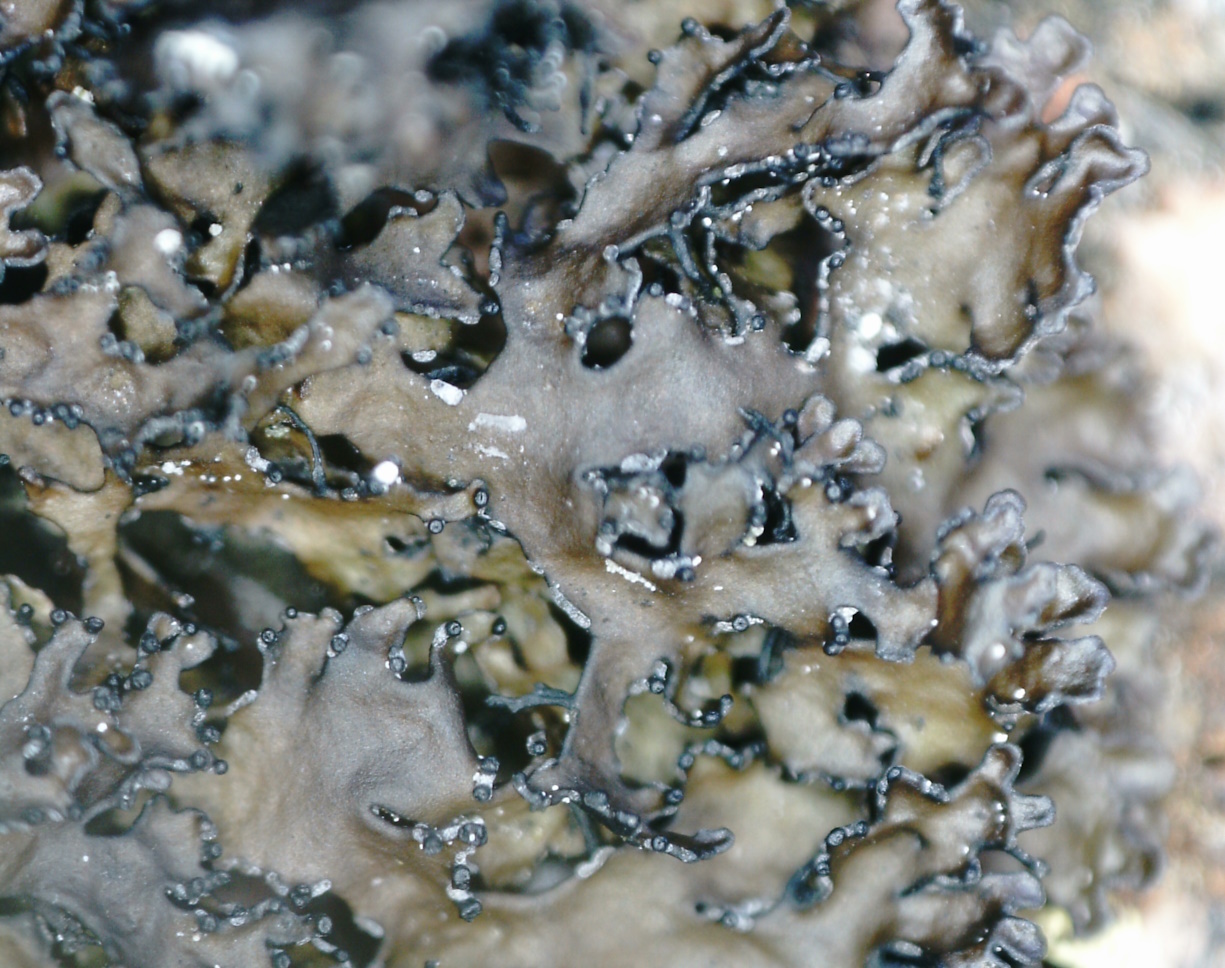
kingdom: Fungi
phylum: Ascomycota
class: Lecanoromycetes
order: Lecanorales
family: Parmeliaceae
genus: Melanelia
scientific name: Melanelia commixta
